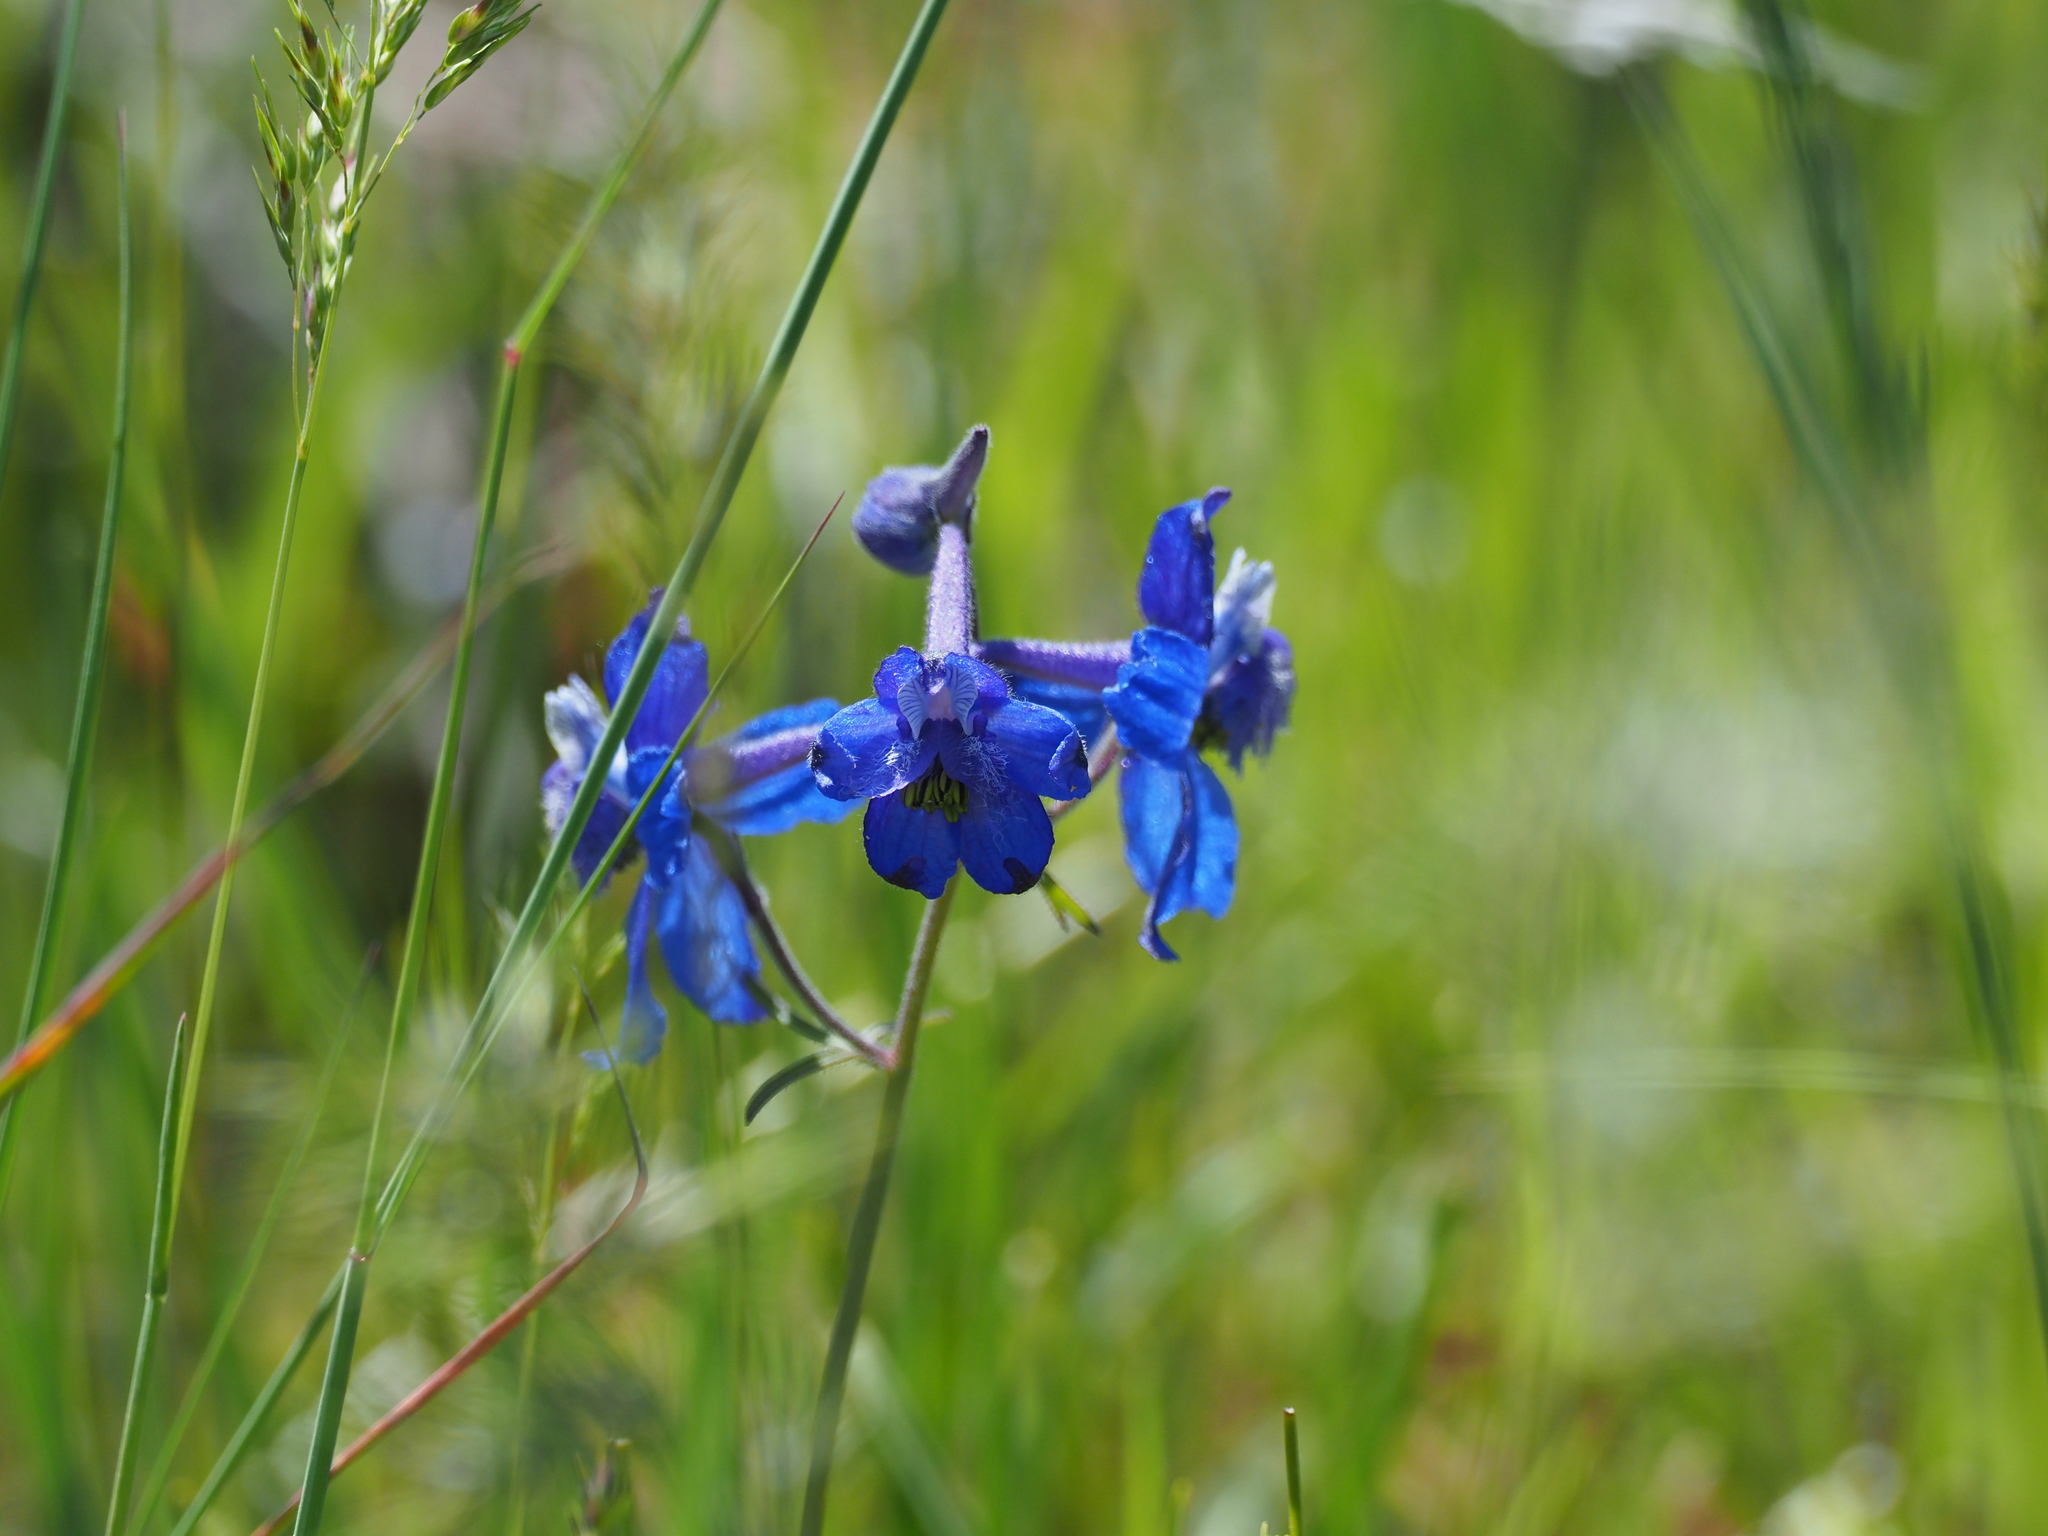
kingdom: Plantae
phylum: Tracheophyta
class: Magnoliopsida
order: Ranunculales
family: Ranunculaceae
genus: Delphinium
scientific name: Delphinium nuttallianum
